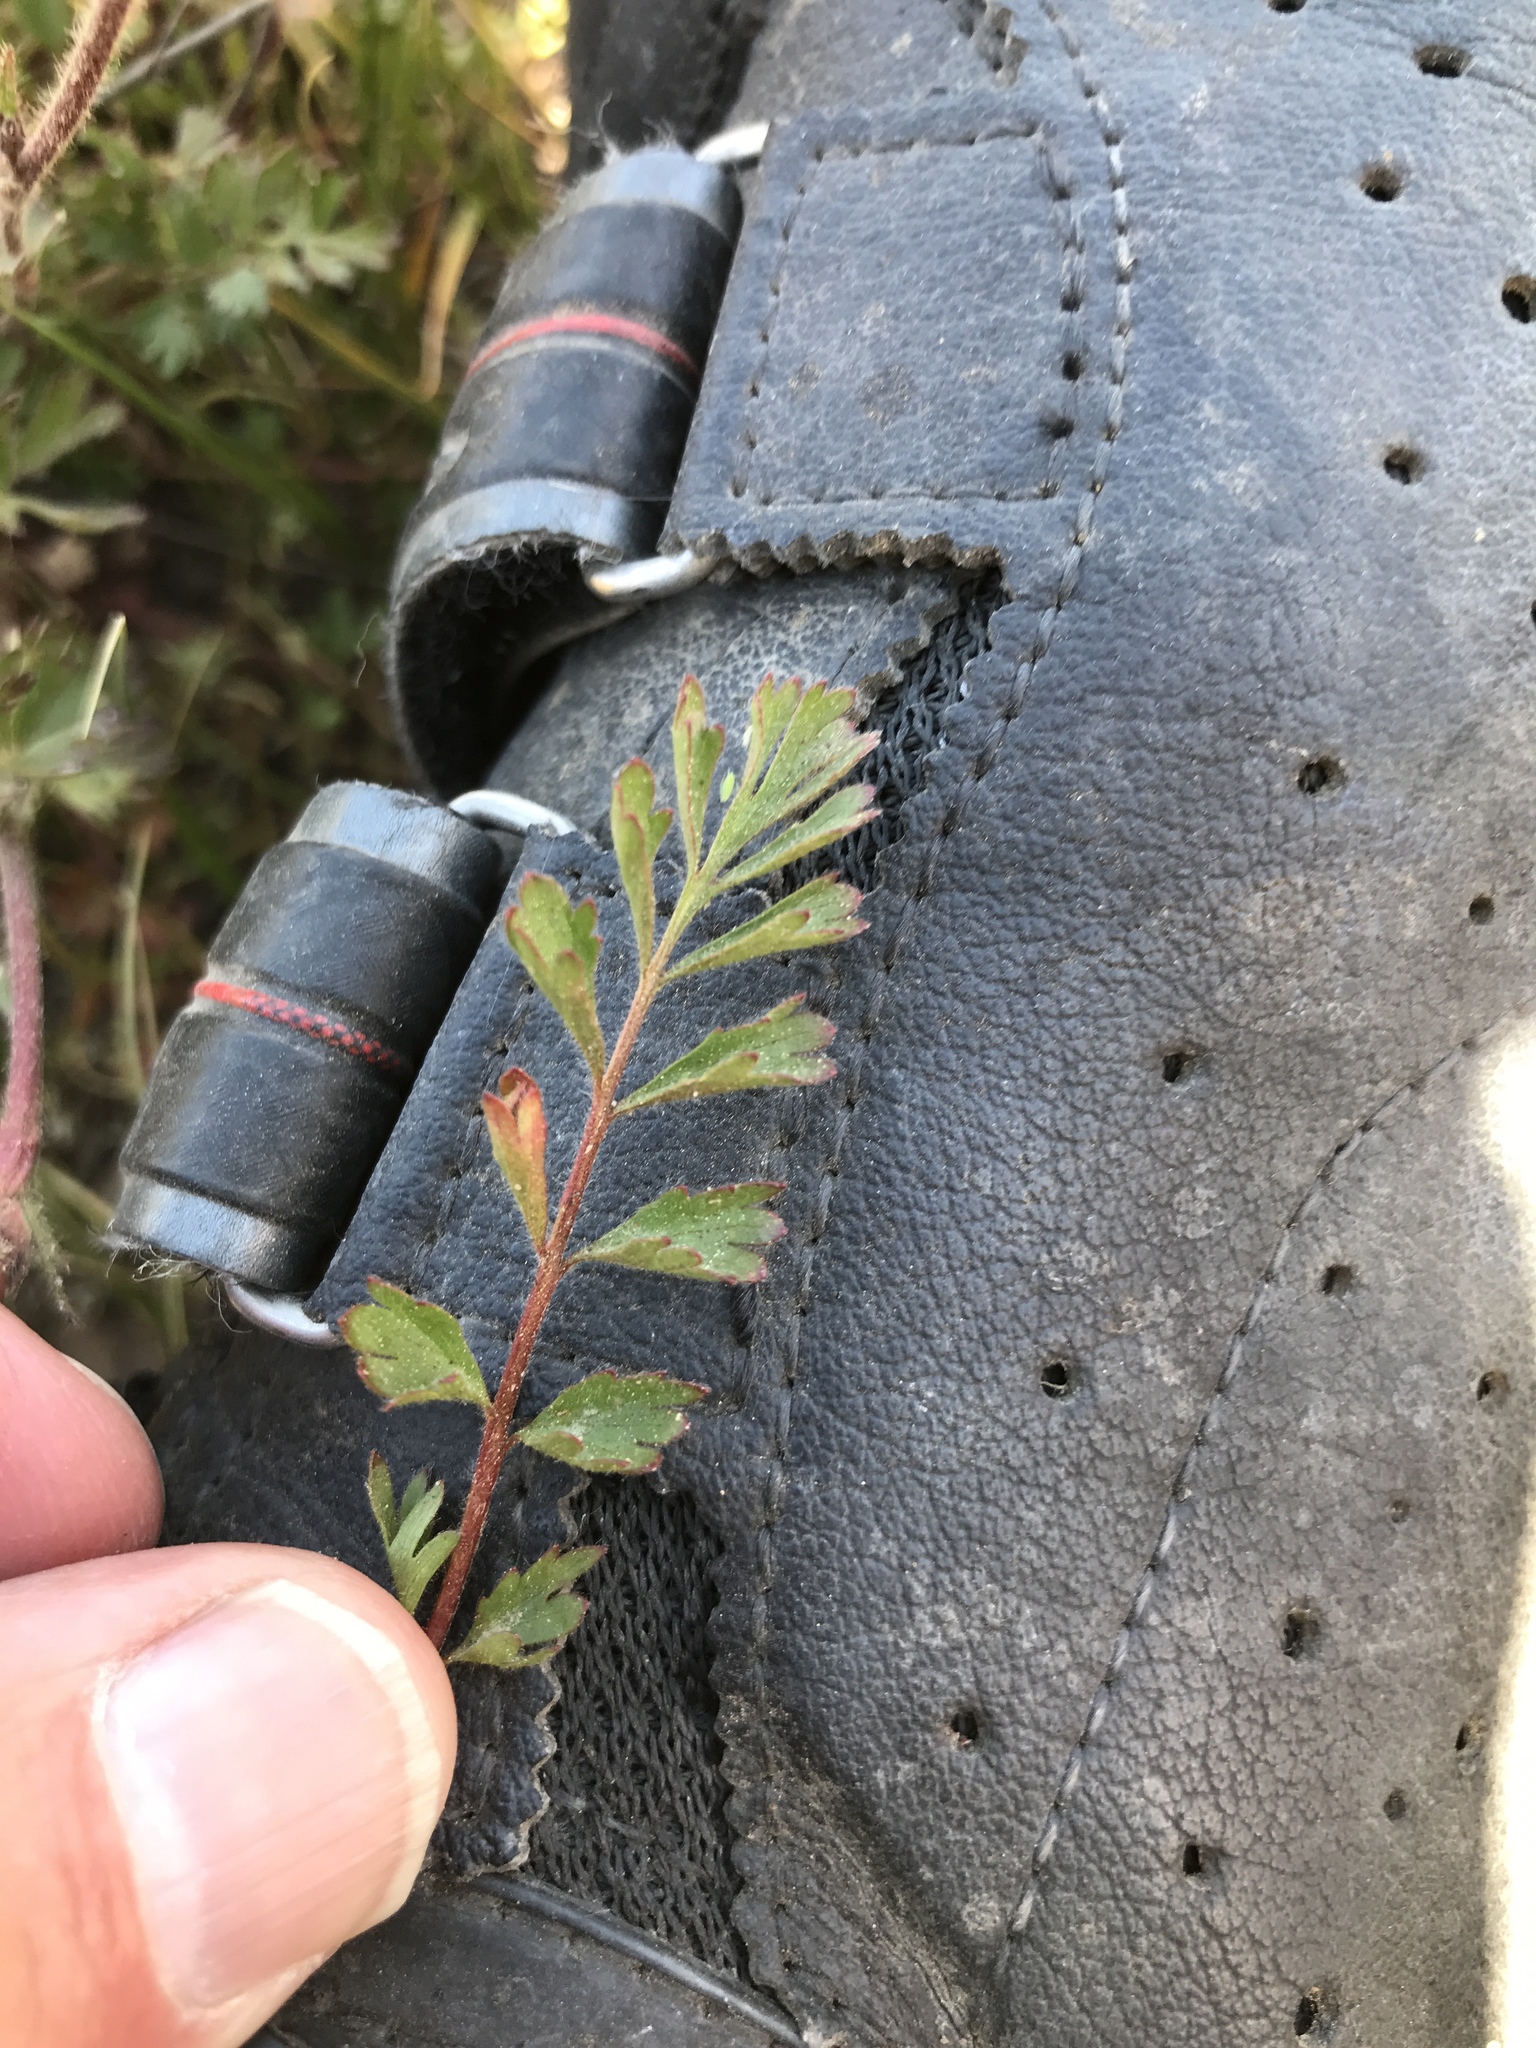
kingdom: Plantae
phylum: Tracheophyta
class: Magnoliopsida
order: Rosales
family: Rosaceae
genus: Potentilla
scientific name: Potentilla douglasii
